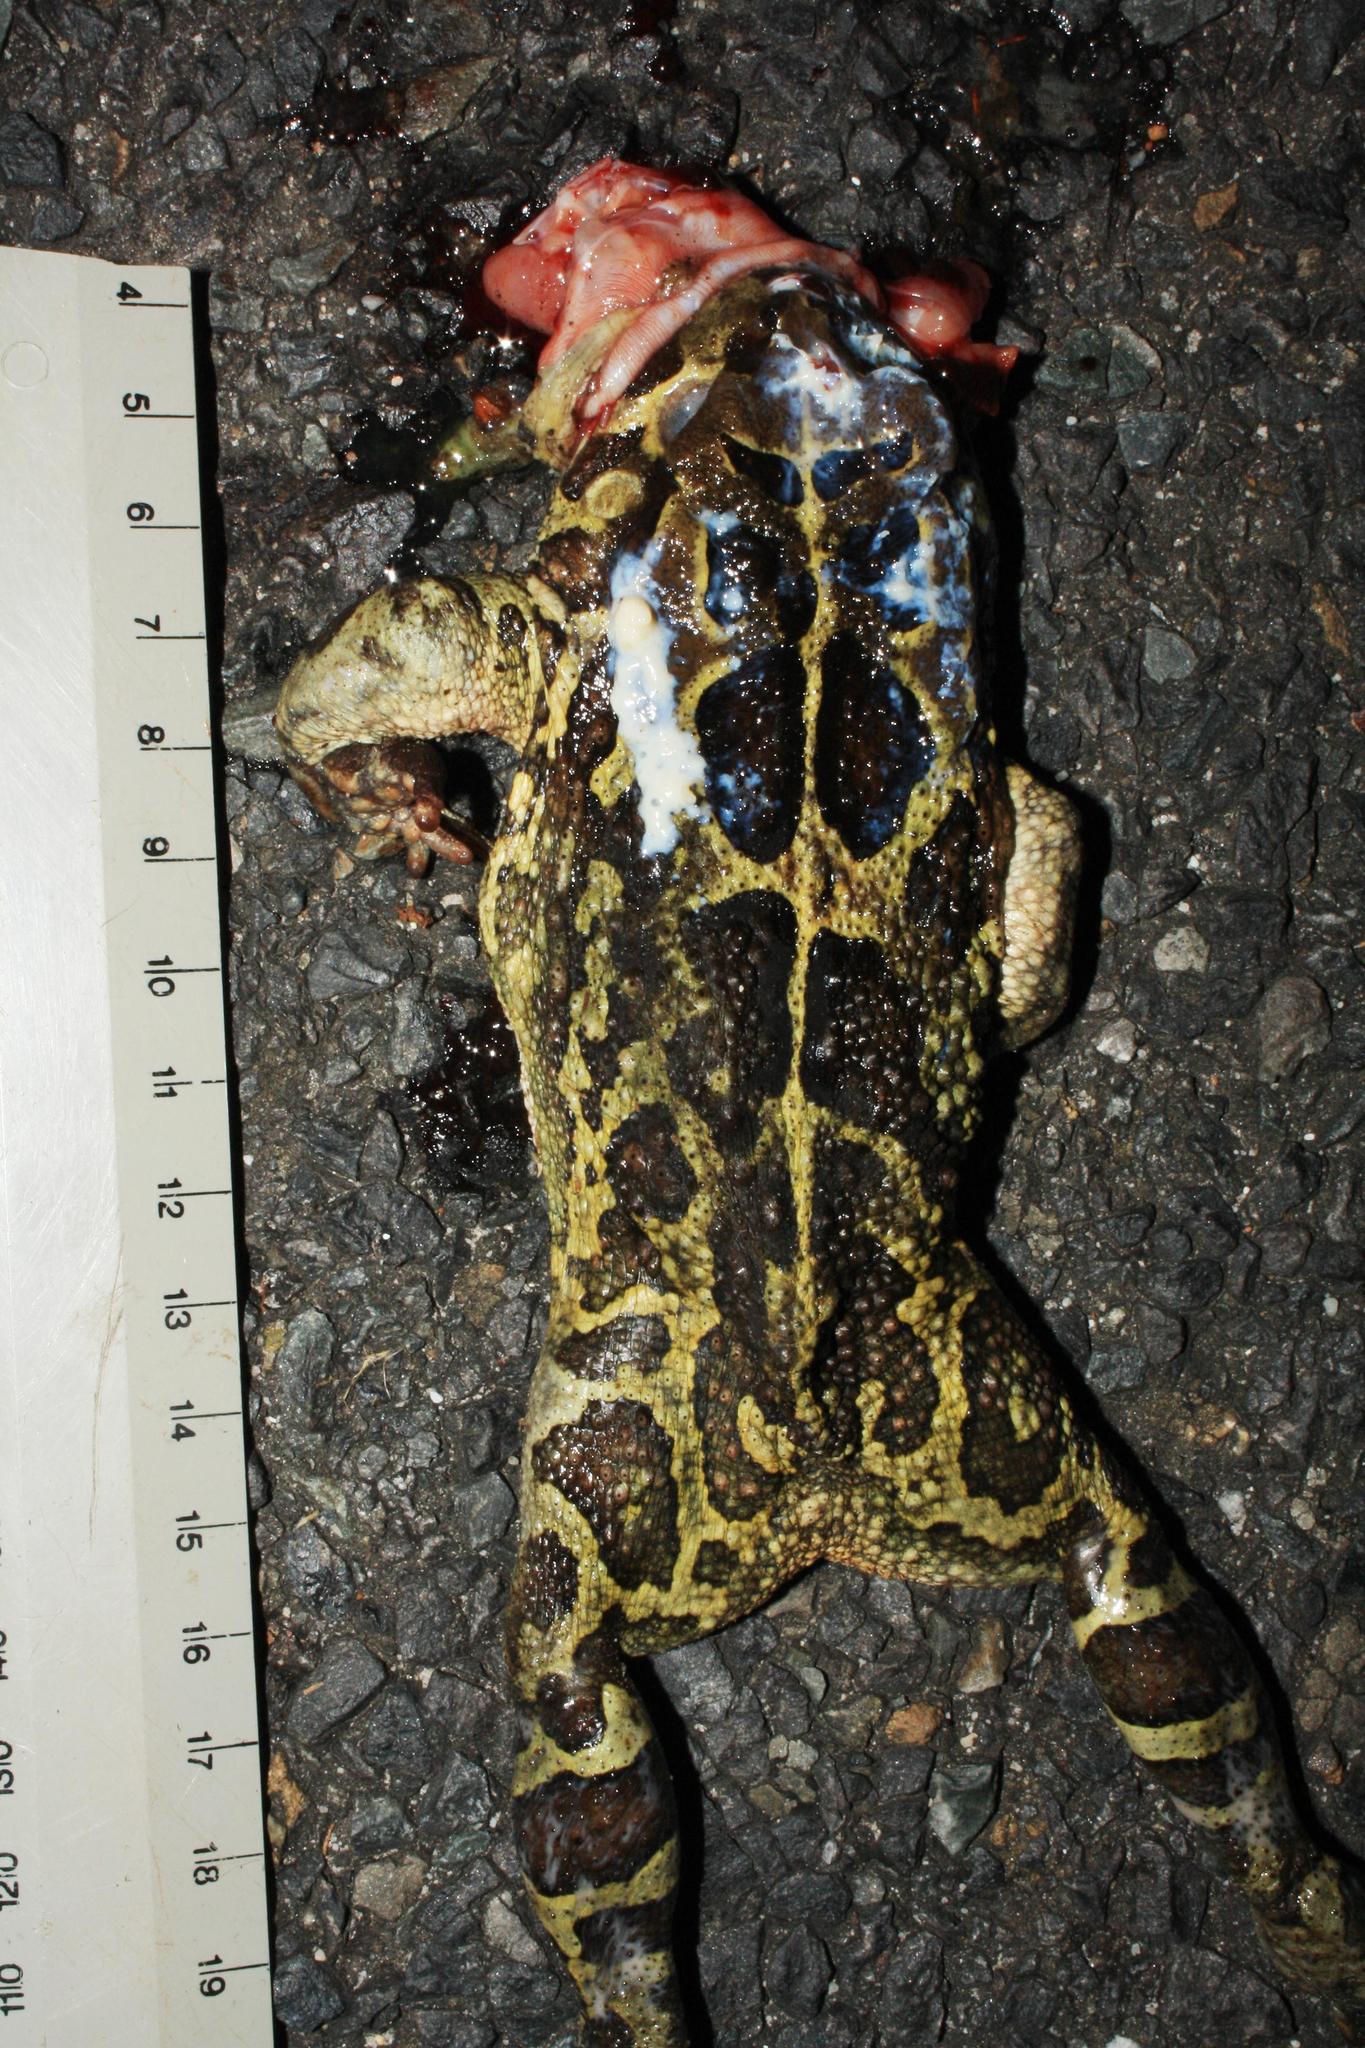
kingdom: Animalia
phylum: Chordata
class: Amphibia
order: Anura
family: Bufonidae
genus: Sclerophrys
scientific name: Sclerophrys pantherina
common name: Panther toad
